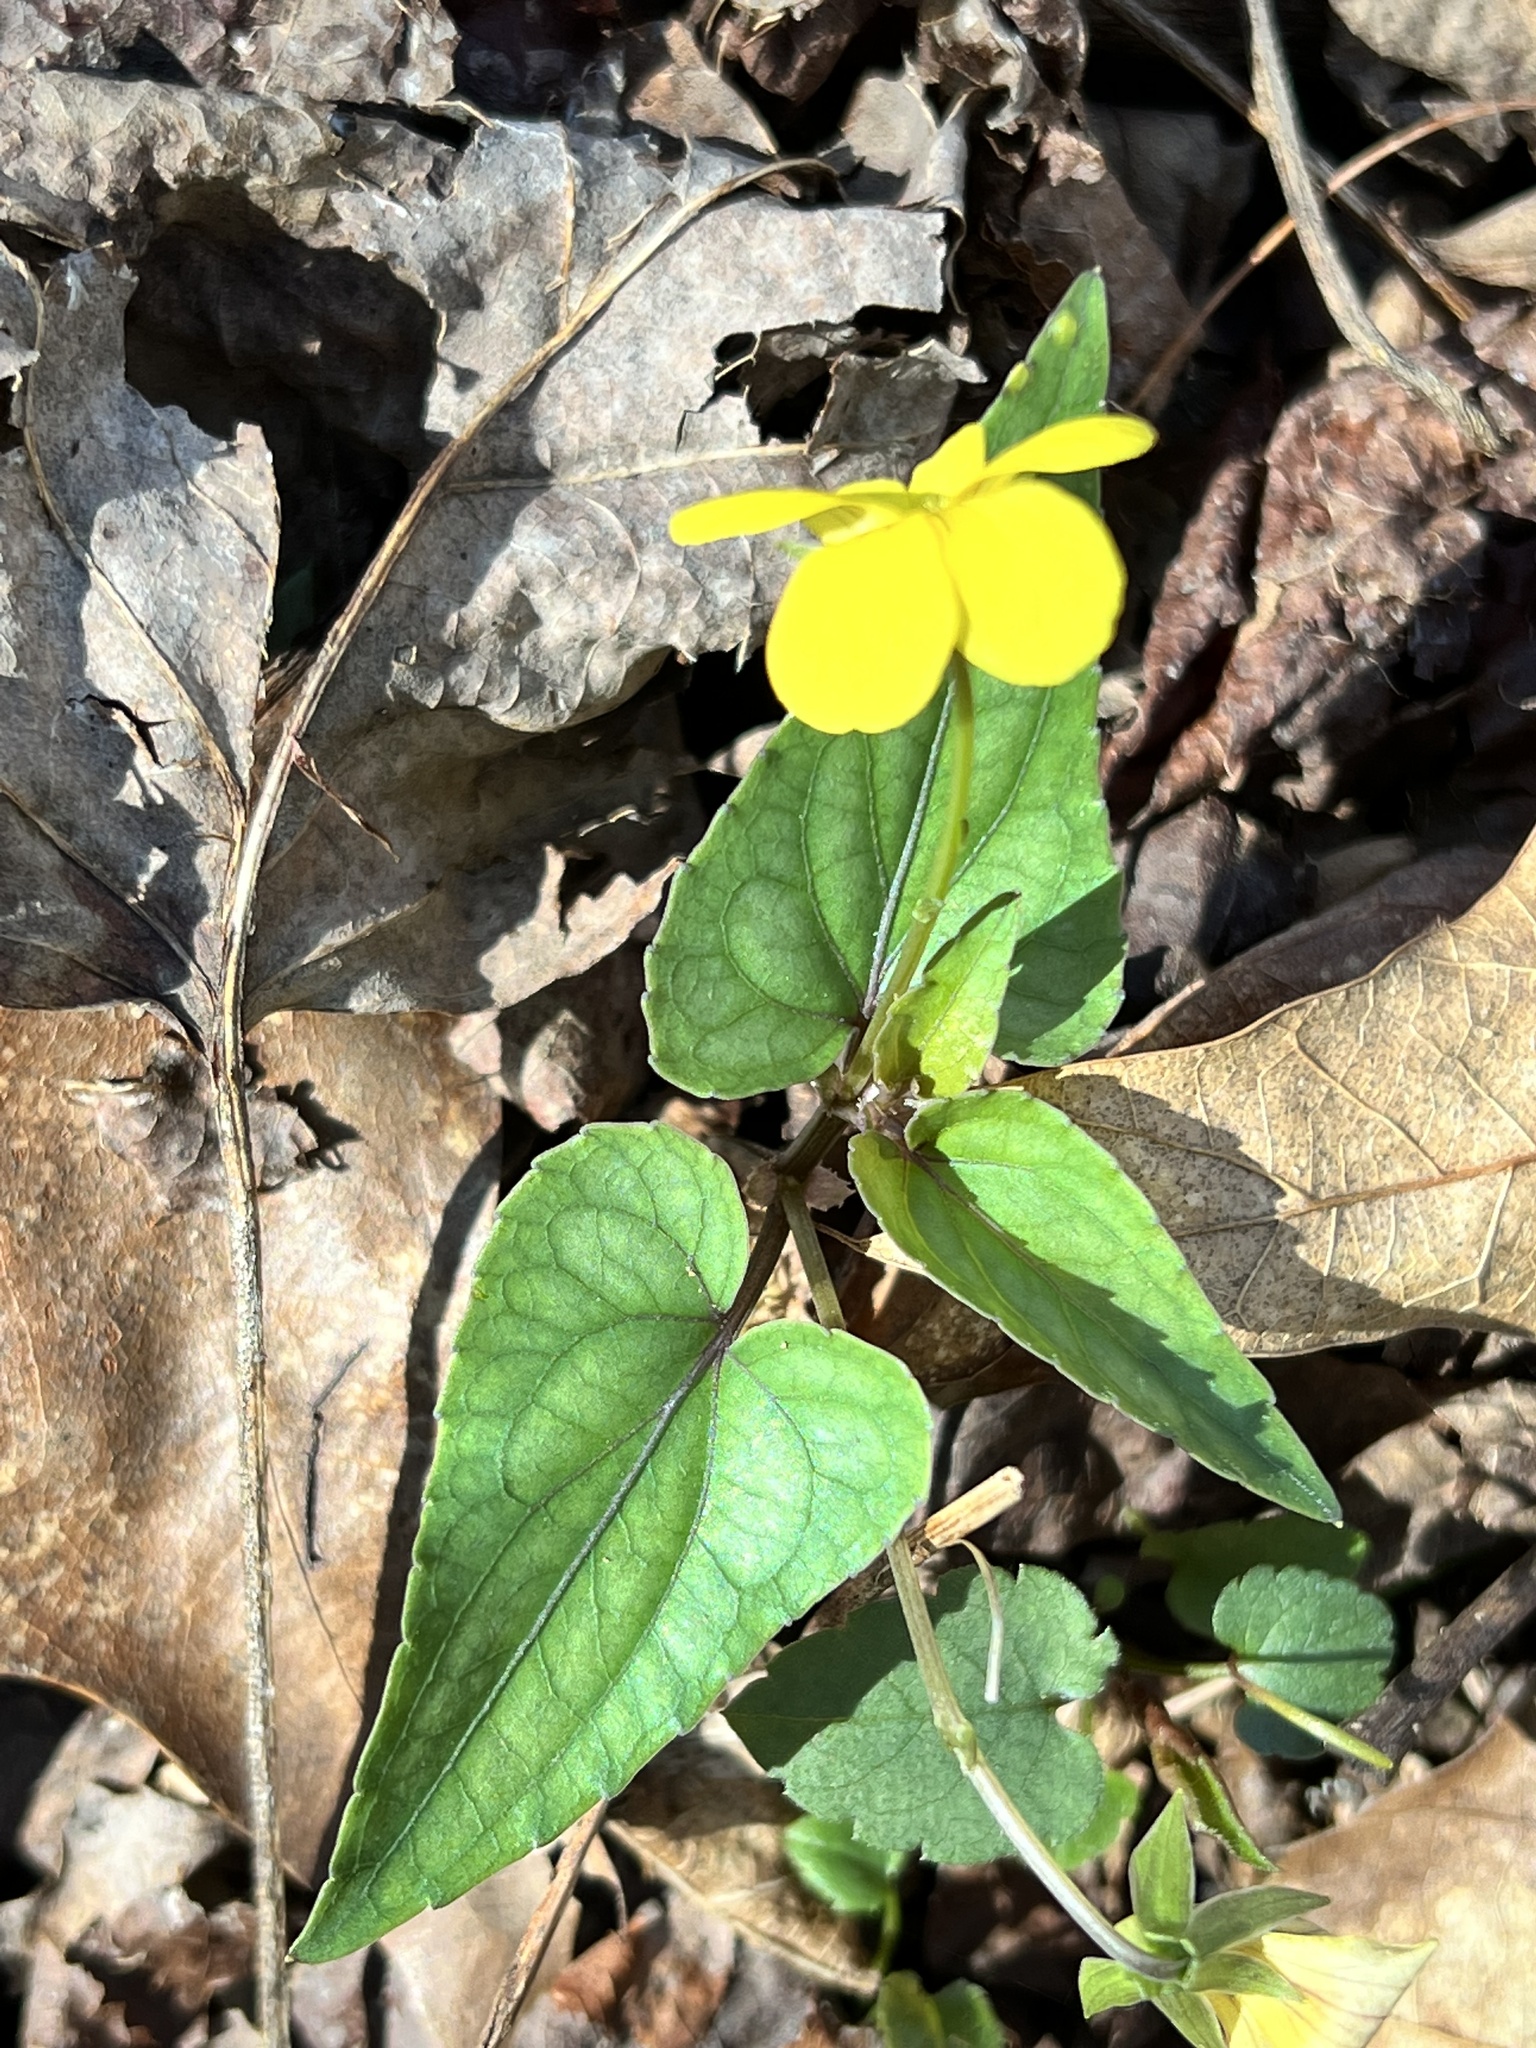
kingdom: Plantae
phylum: Tracheophyta
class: Magnoliopsida
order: Malpighiales
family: Violaceae
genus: Viola
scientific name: Viola hastata
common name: Spear-leaf violet
